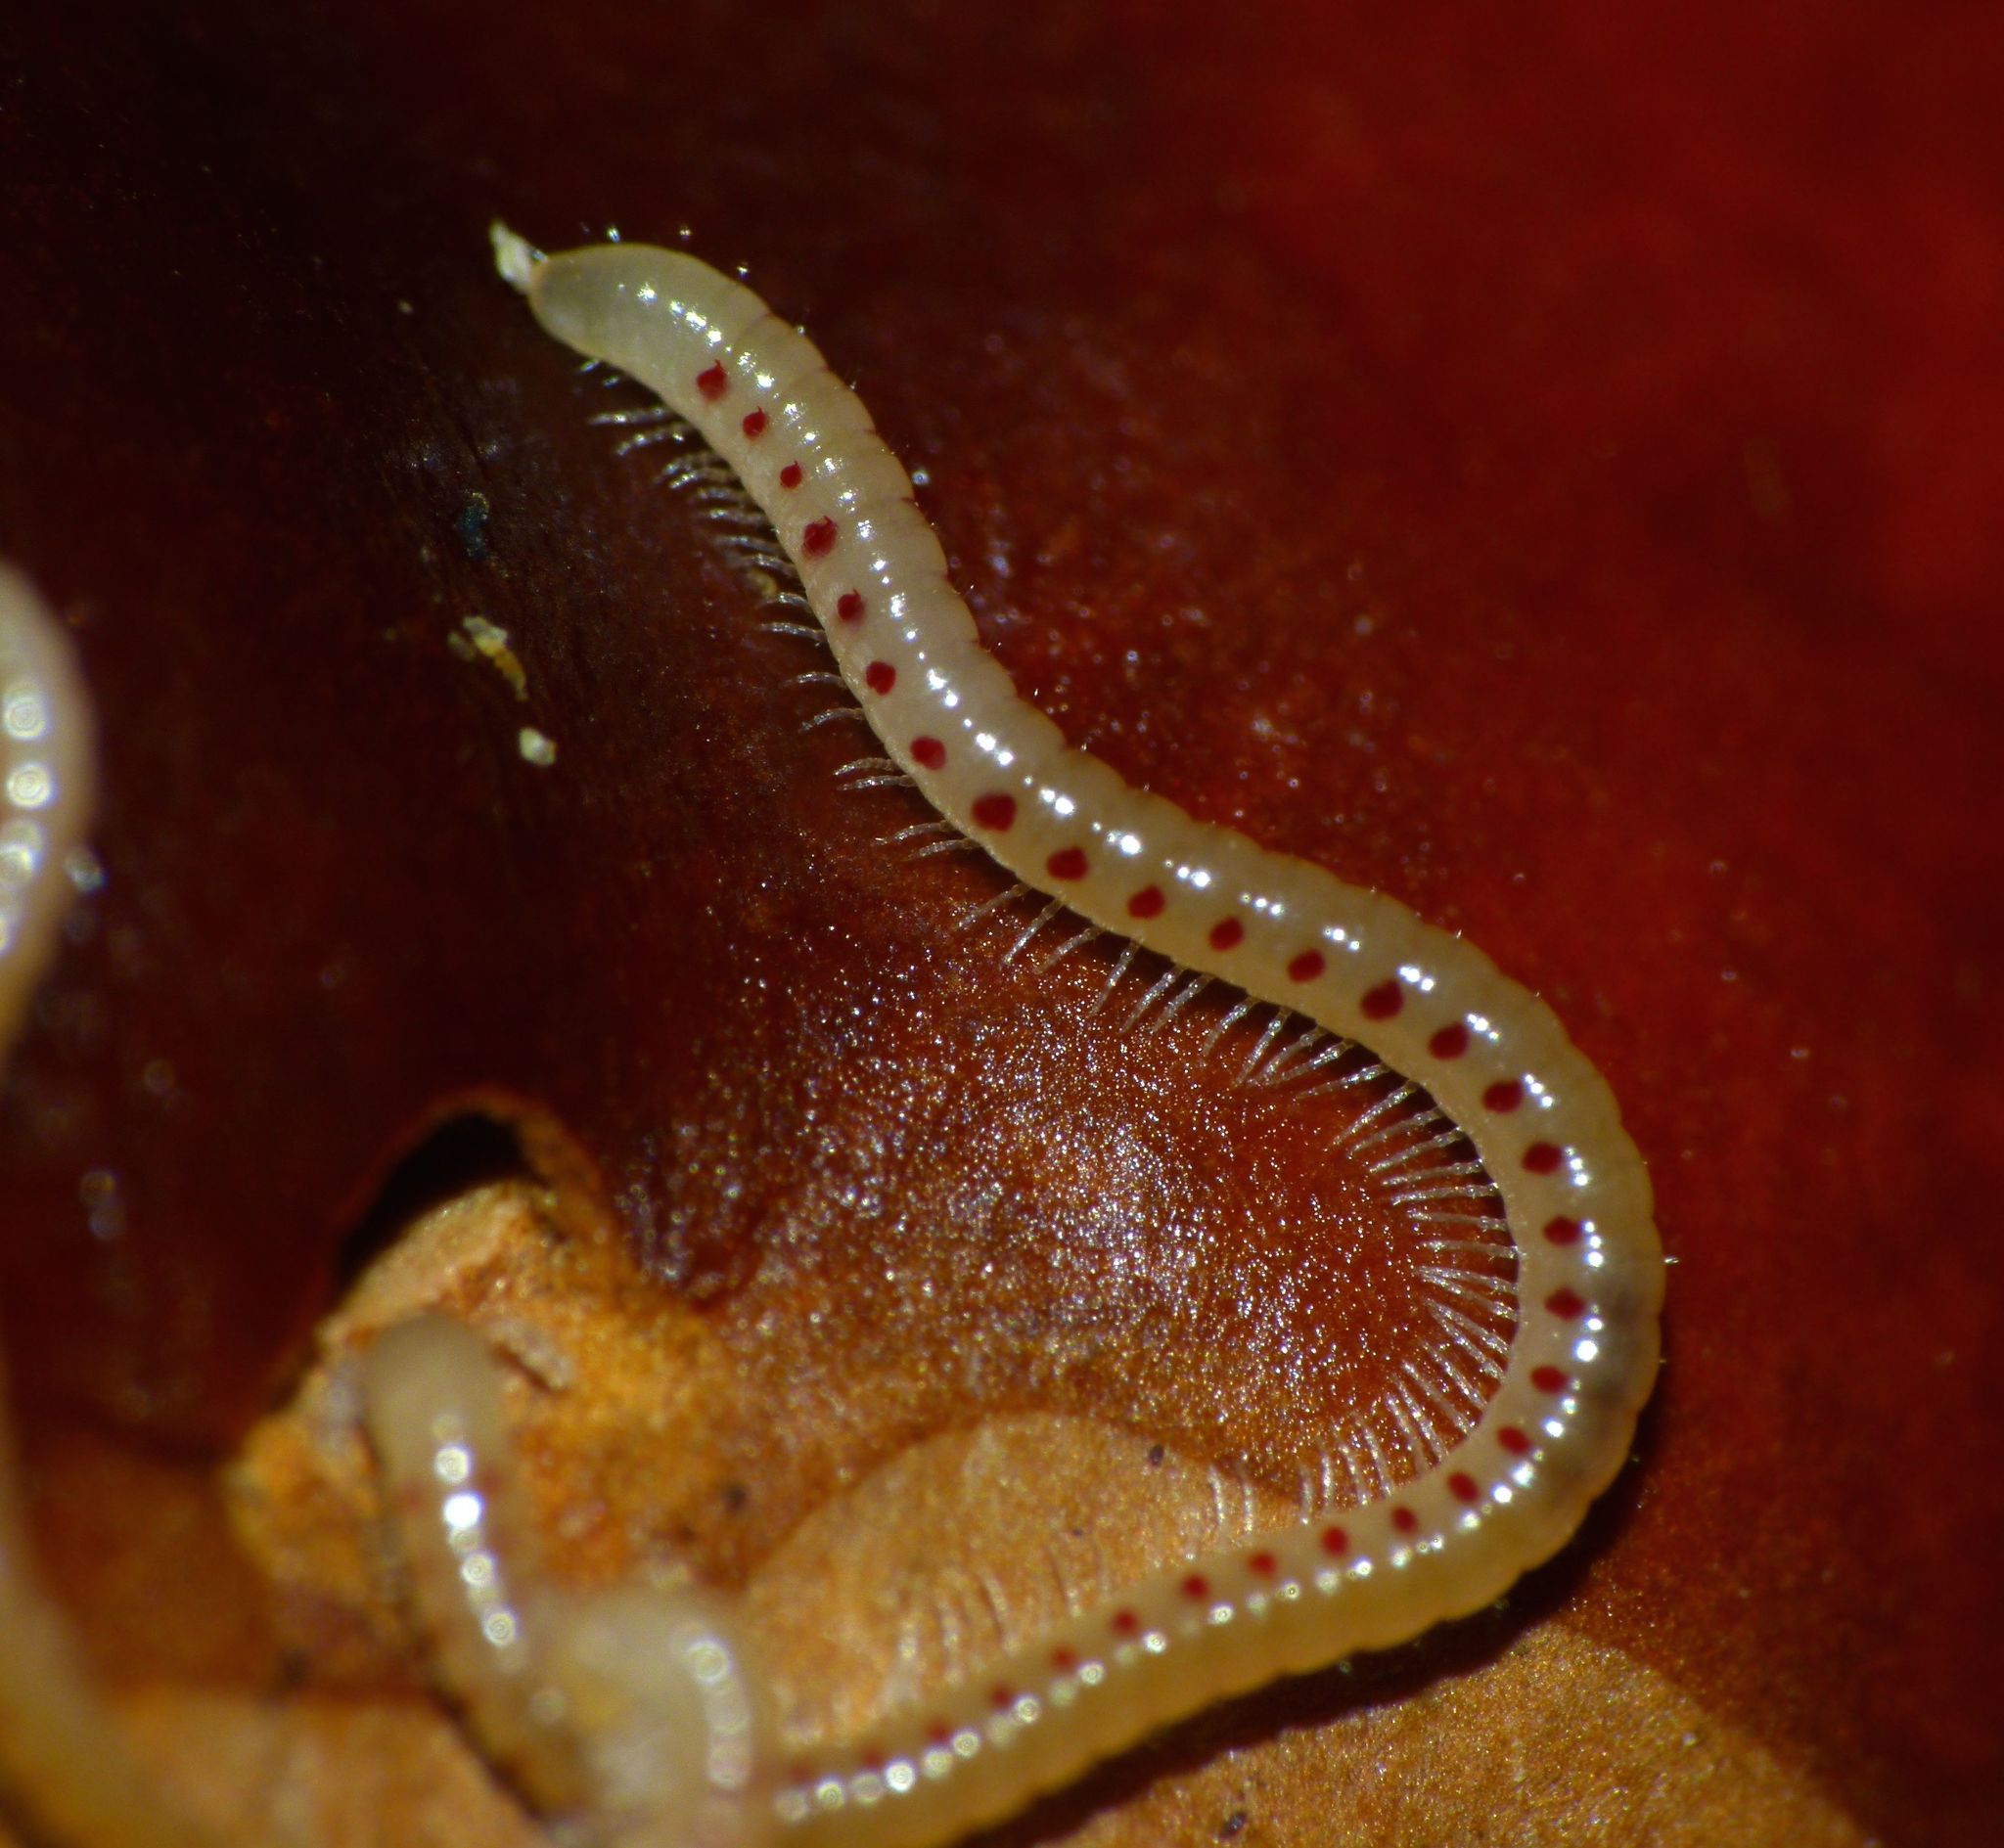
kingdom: Animalia
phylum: Arthropoda
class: Diplopoda
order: Julida
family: Blaniulidae
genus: Blaniulus
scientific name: Blaniulus guttulatus
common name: Spotted snake millipede
